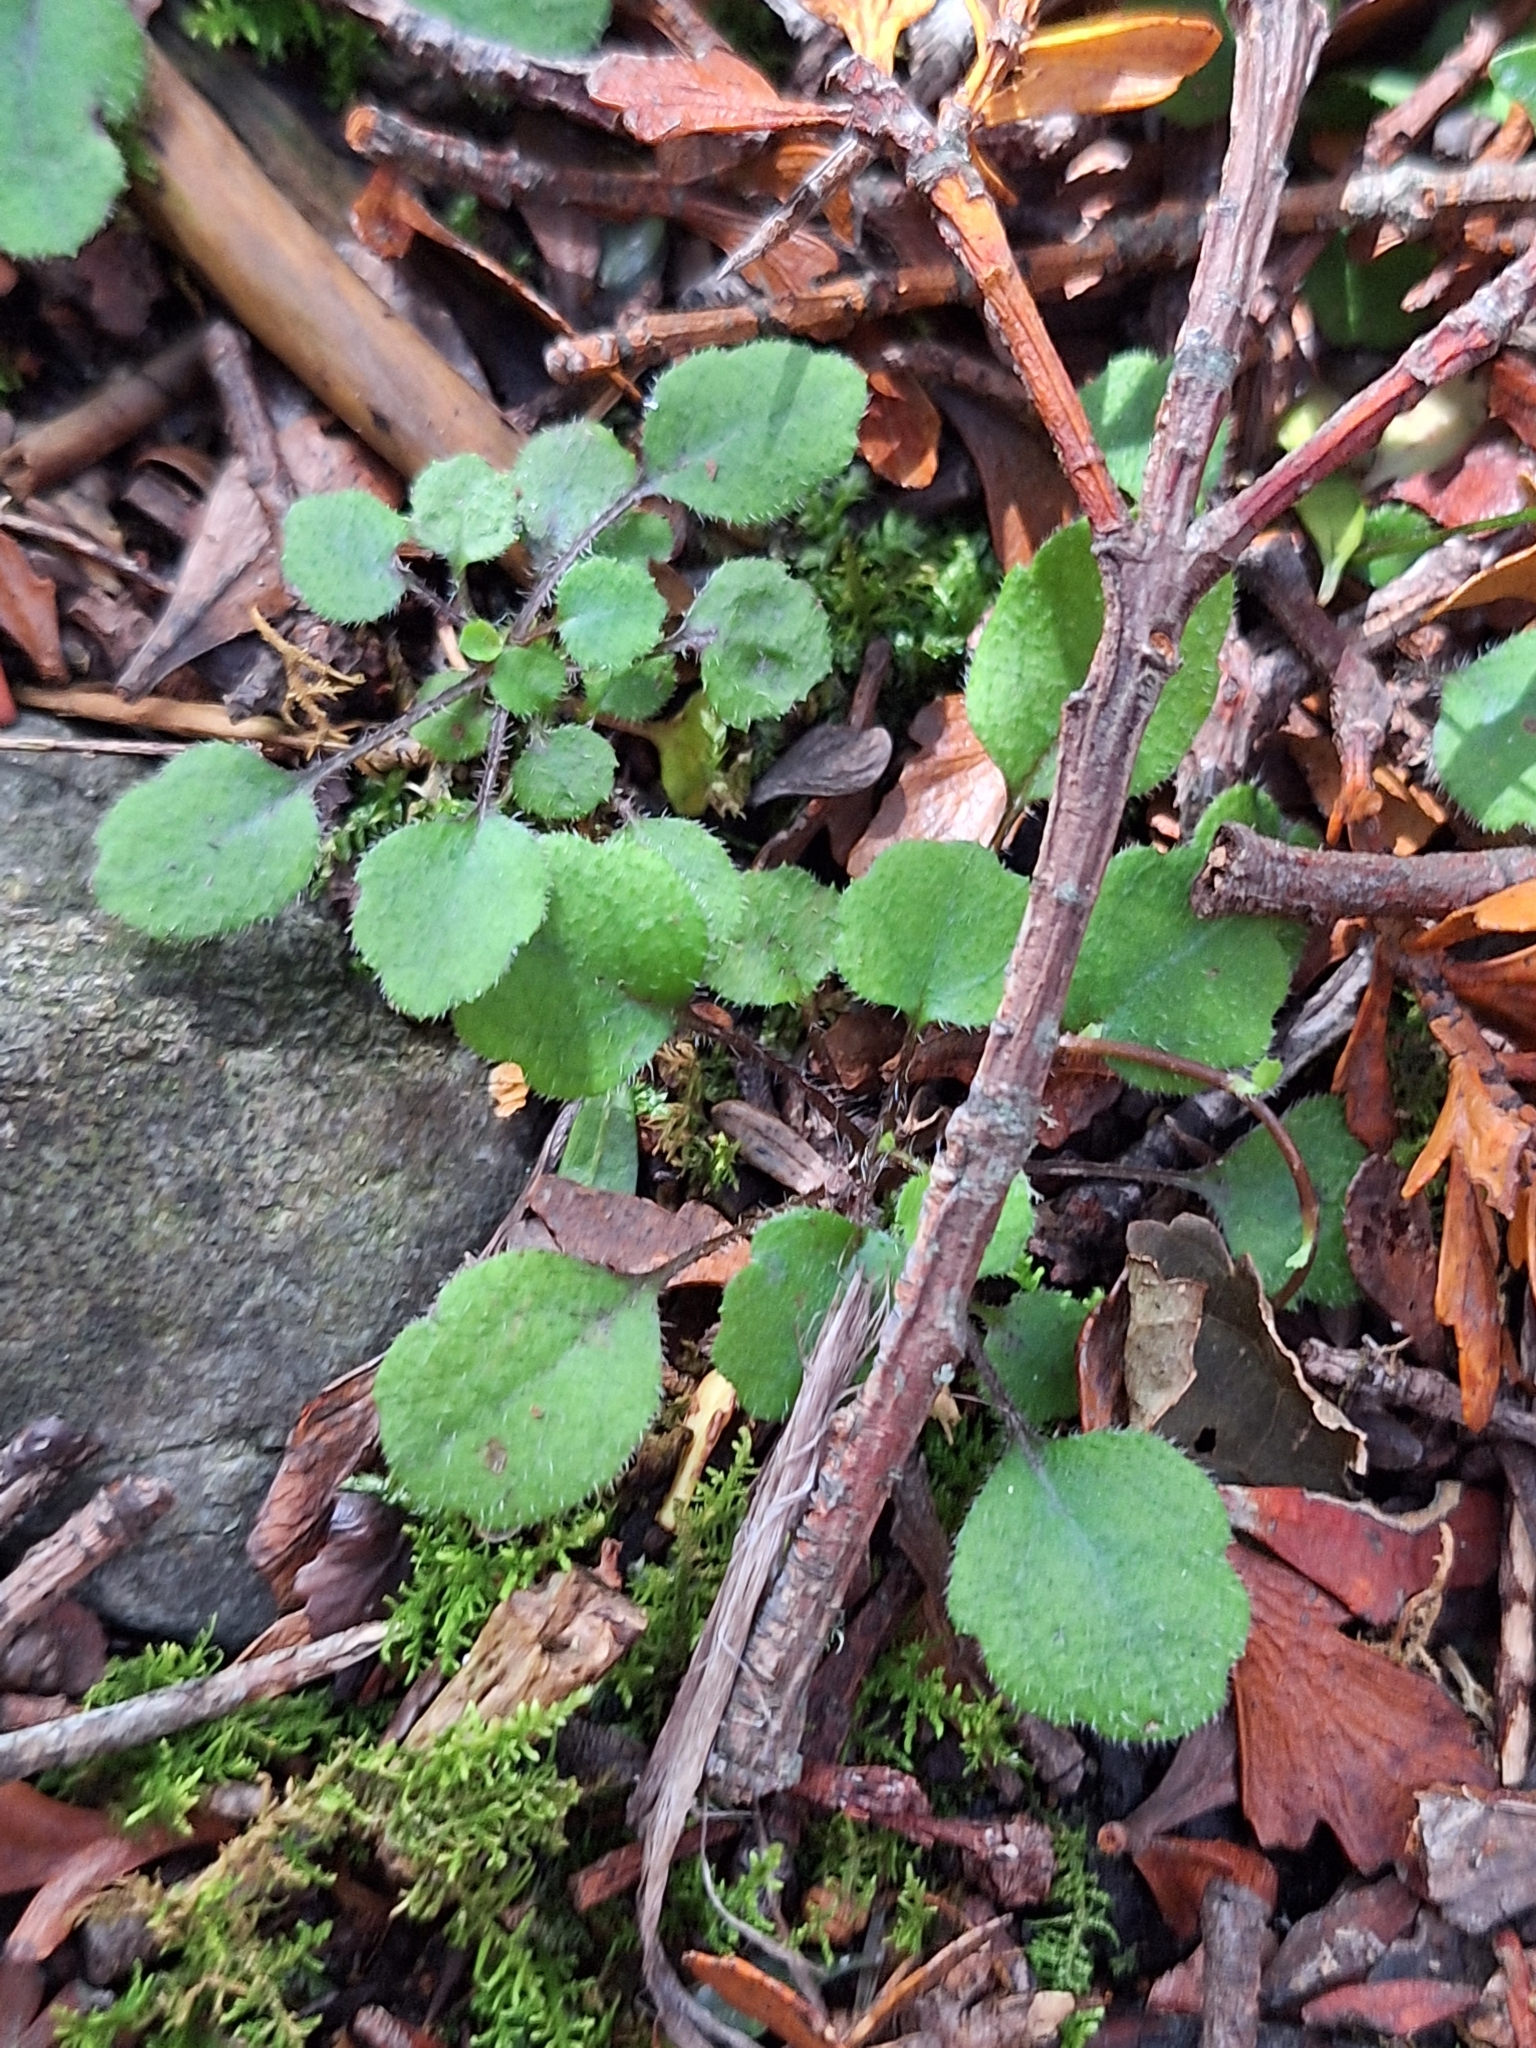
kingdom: Plantae
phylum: Tracheophyta
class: Magnoliopsida
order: Asterales
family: Asteraceae
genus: Lagenophora
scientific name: Lagenophora strangulata
